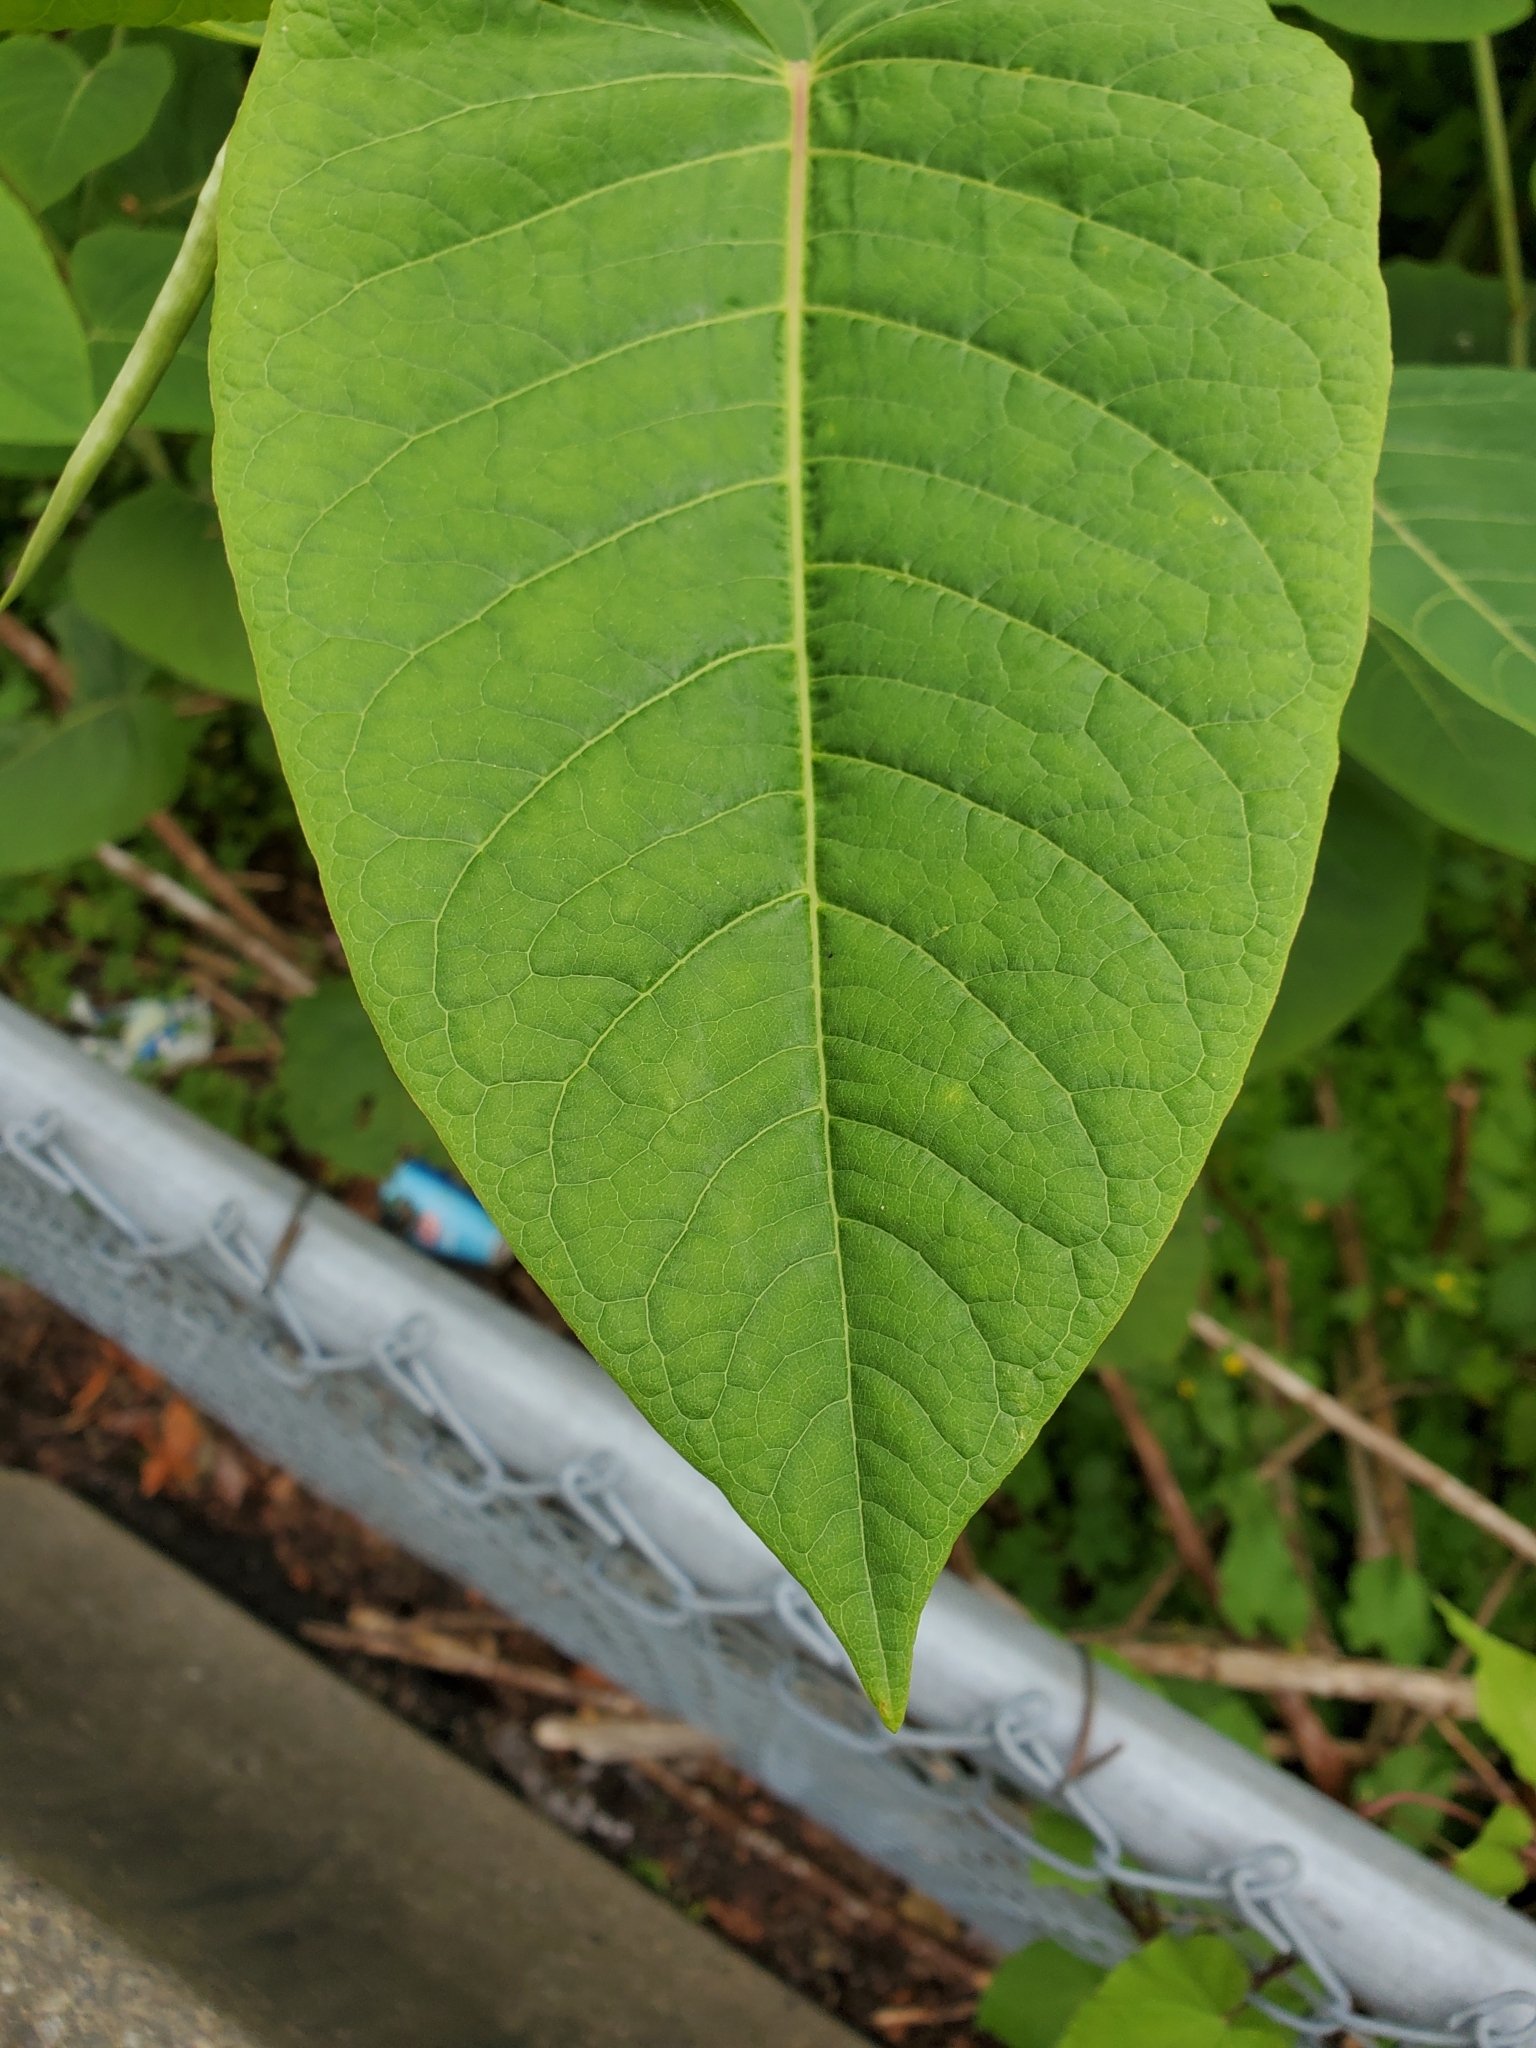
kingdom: Plantae
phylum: Tracheophyta
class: Magnoliopsida
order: Caryophyllales
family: Polygonaceae
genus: Reynoutria
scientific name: Reynoutria sachalinensis
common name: Giant knotweed
